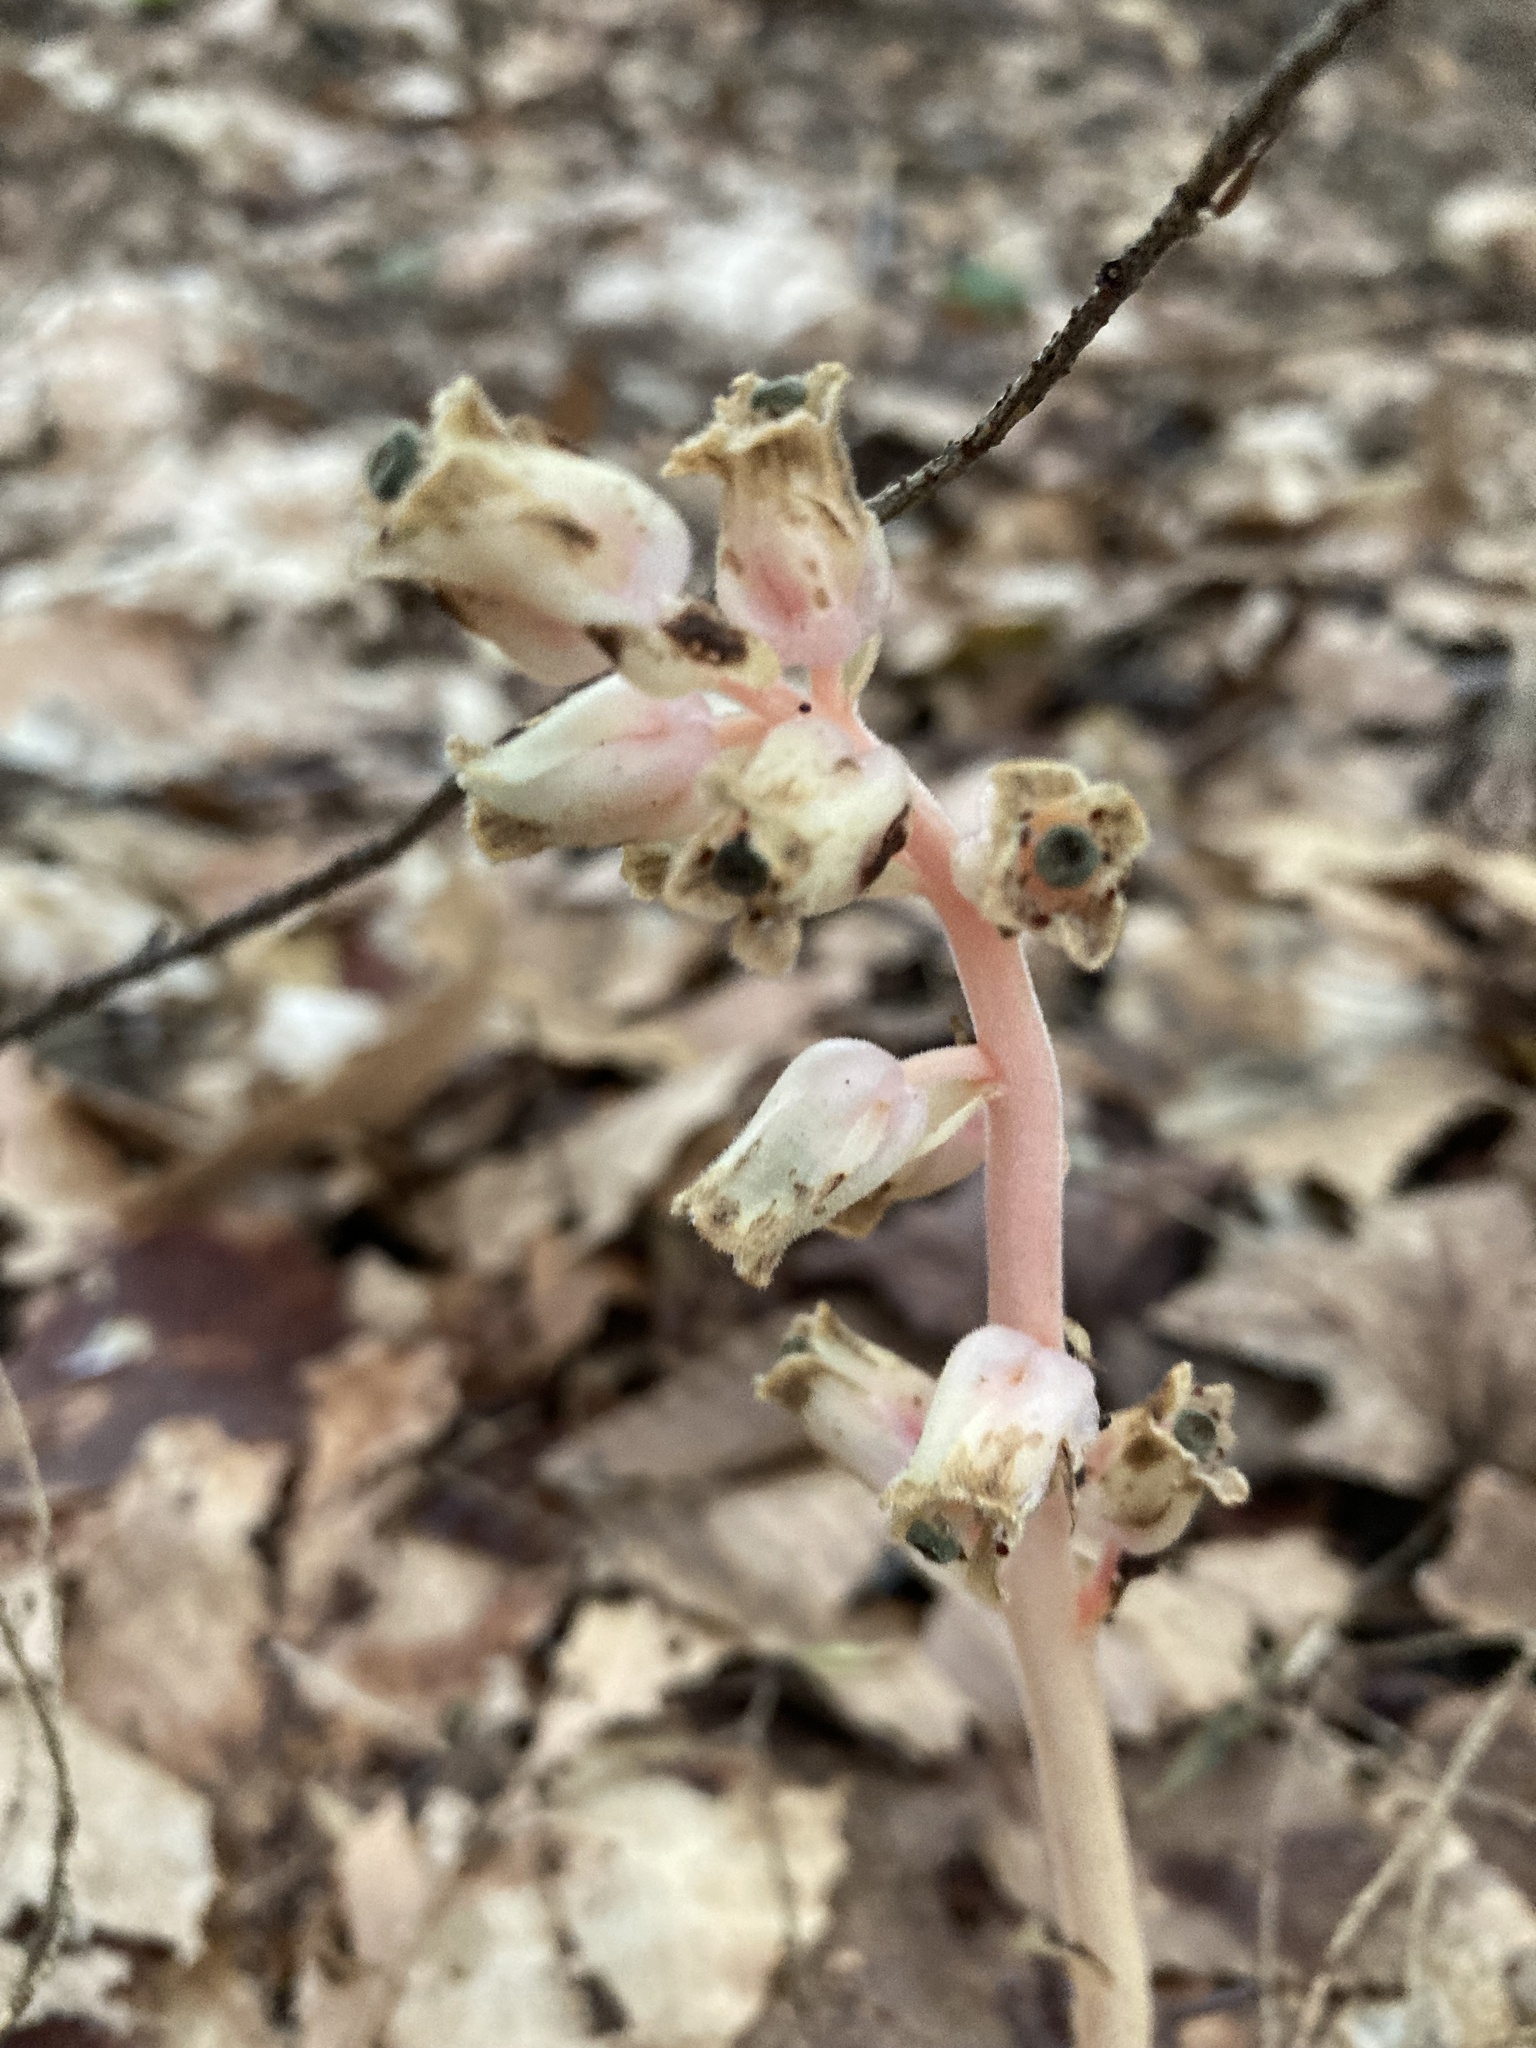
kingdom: Plantae
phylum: Tracheophyta
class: Magnoliopsida
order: Ericales
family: Ericaceae
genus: Hypopitys
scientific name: Hypopitys monotropa
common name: Yellow bird's-nest
